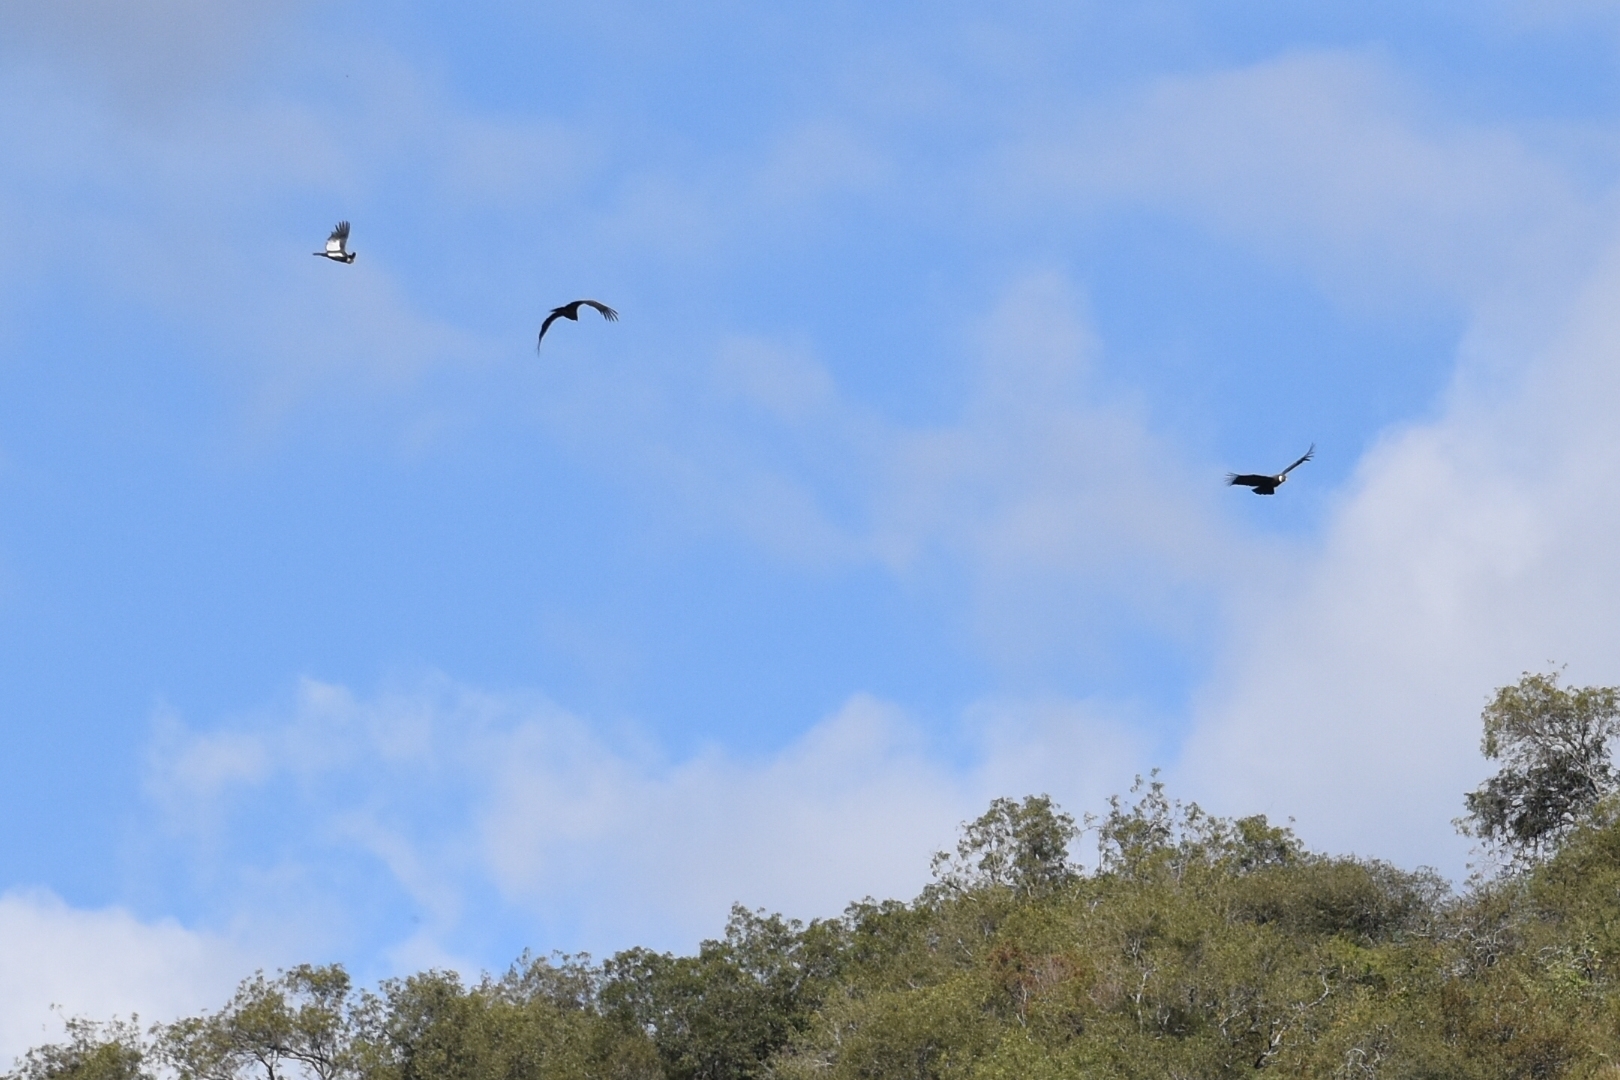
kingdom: Animalia
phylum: Chordata
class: Aves
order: Accipitriformes
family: Cathartidae
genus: Vultur
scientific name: Vultur gryphus
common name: Andean condor
